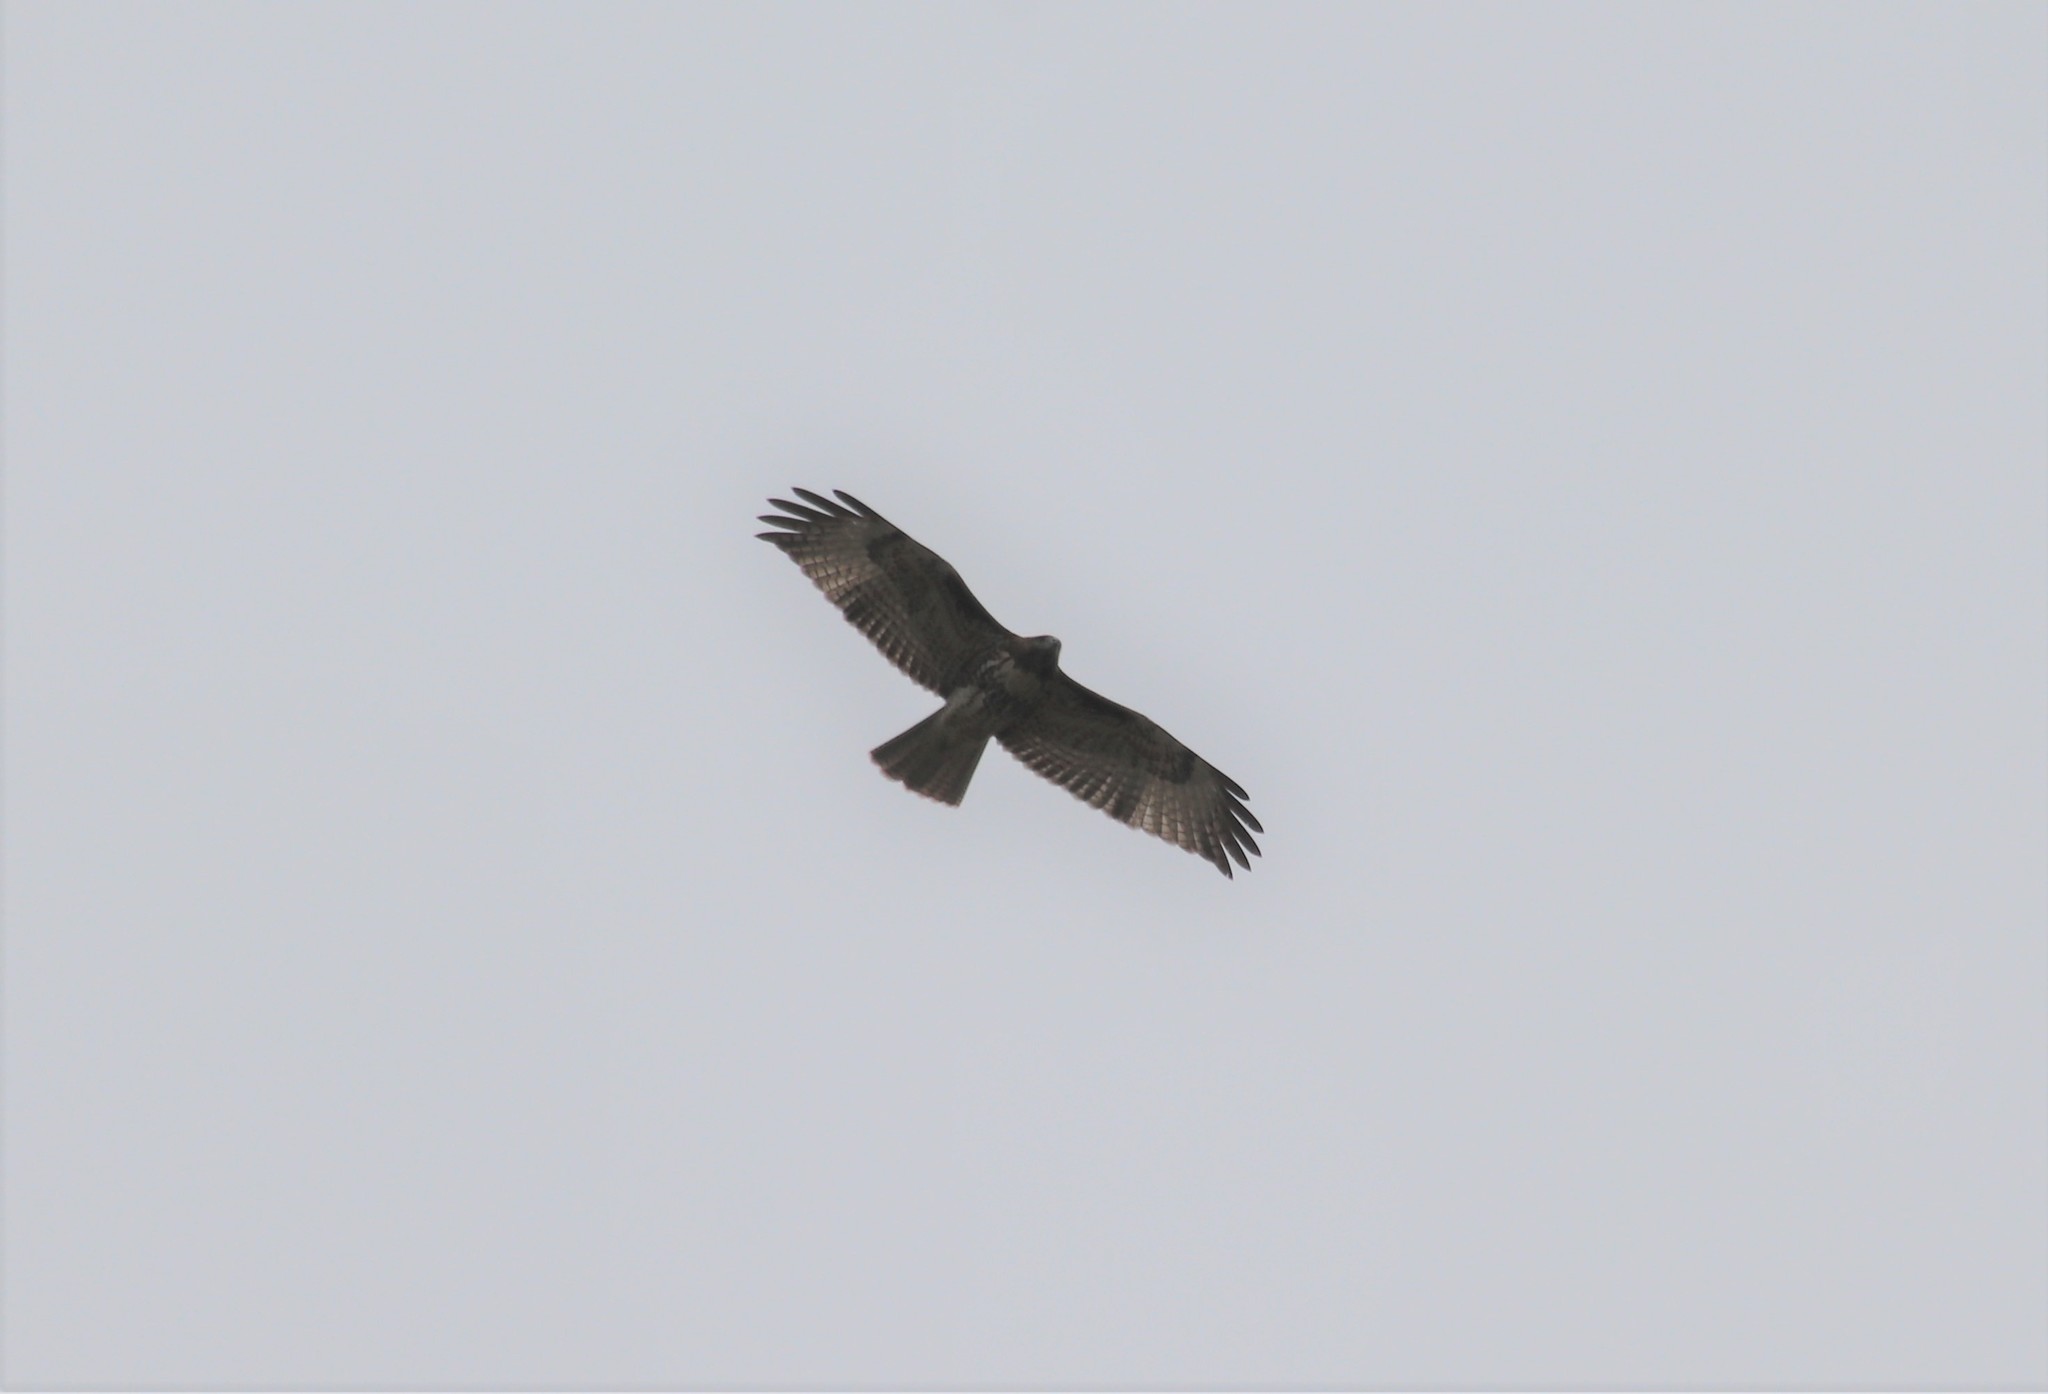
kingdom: Animalia
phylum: Chordata
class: Aves
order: Accipitriformes
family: Accipitridae
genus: Buteo
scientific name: Buteo jamaicensis
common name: Red-tailed hawk
